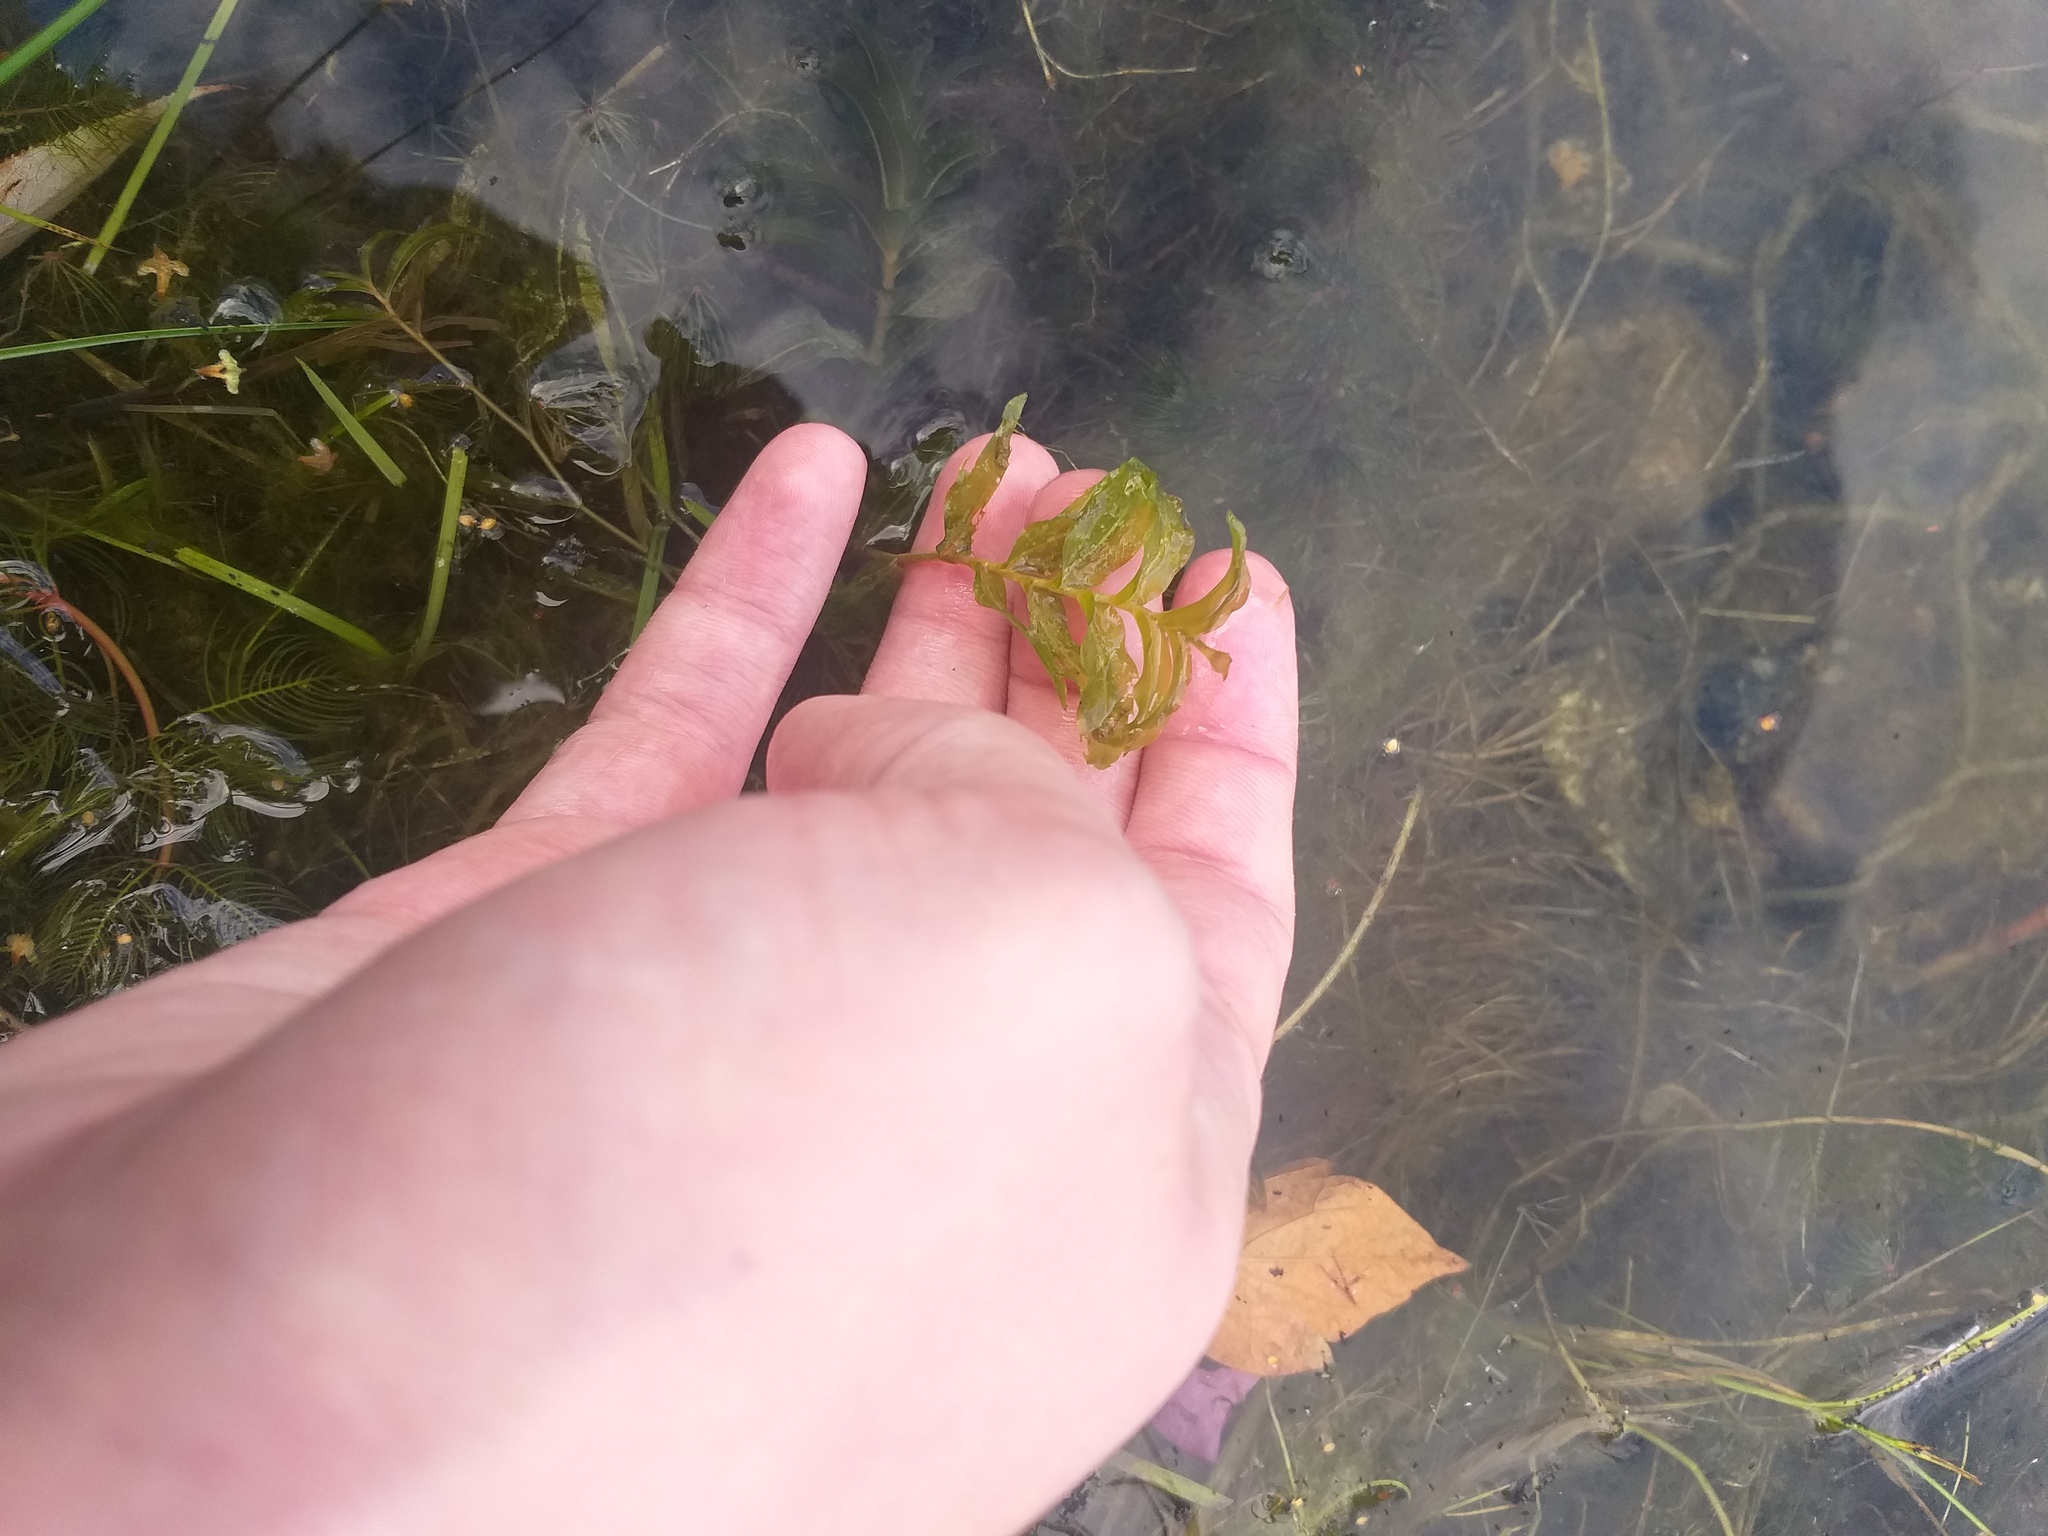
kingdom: Plantae
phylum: Tracheophyta
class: Liliopsida
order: Alismatales
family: Potamogetonaceae
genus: Potamogeton
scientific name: Potamogeton perfoliatus
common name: Perfoliate pondweed
